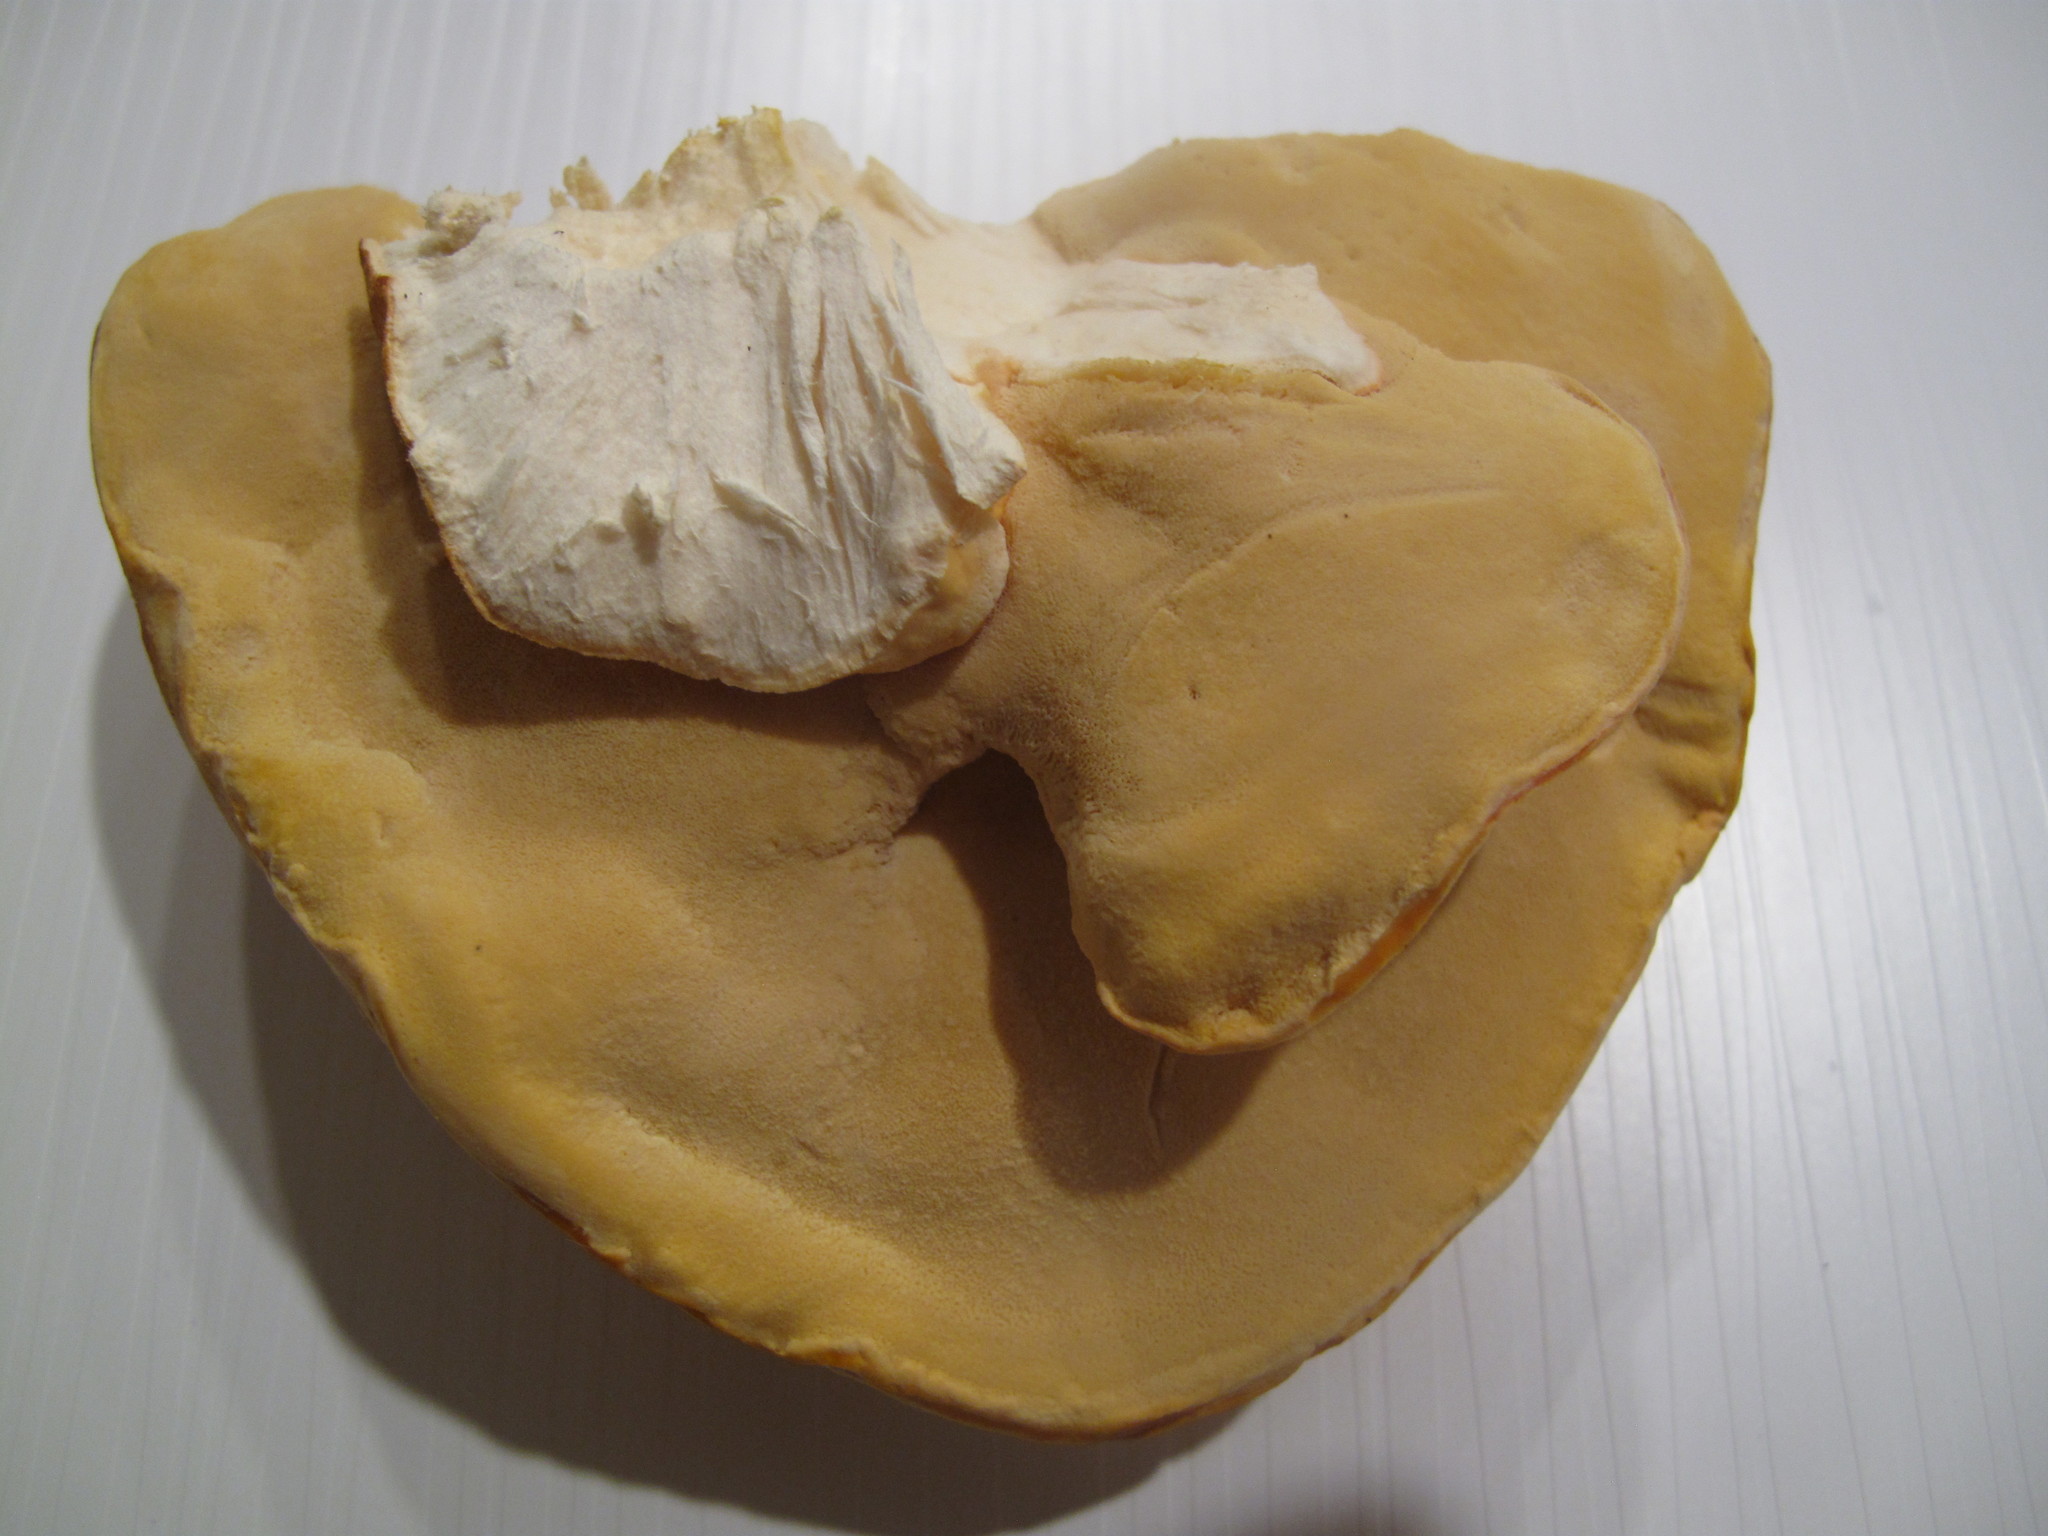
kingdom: Fungi
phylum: Basidiomycota
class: Agaricomycetes
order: Polyporales
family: Laetiporaceae
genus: Laetiporus
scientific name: Laetiporus gilbertsonii
